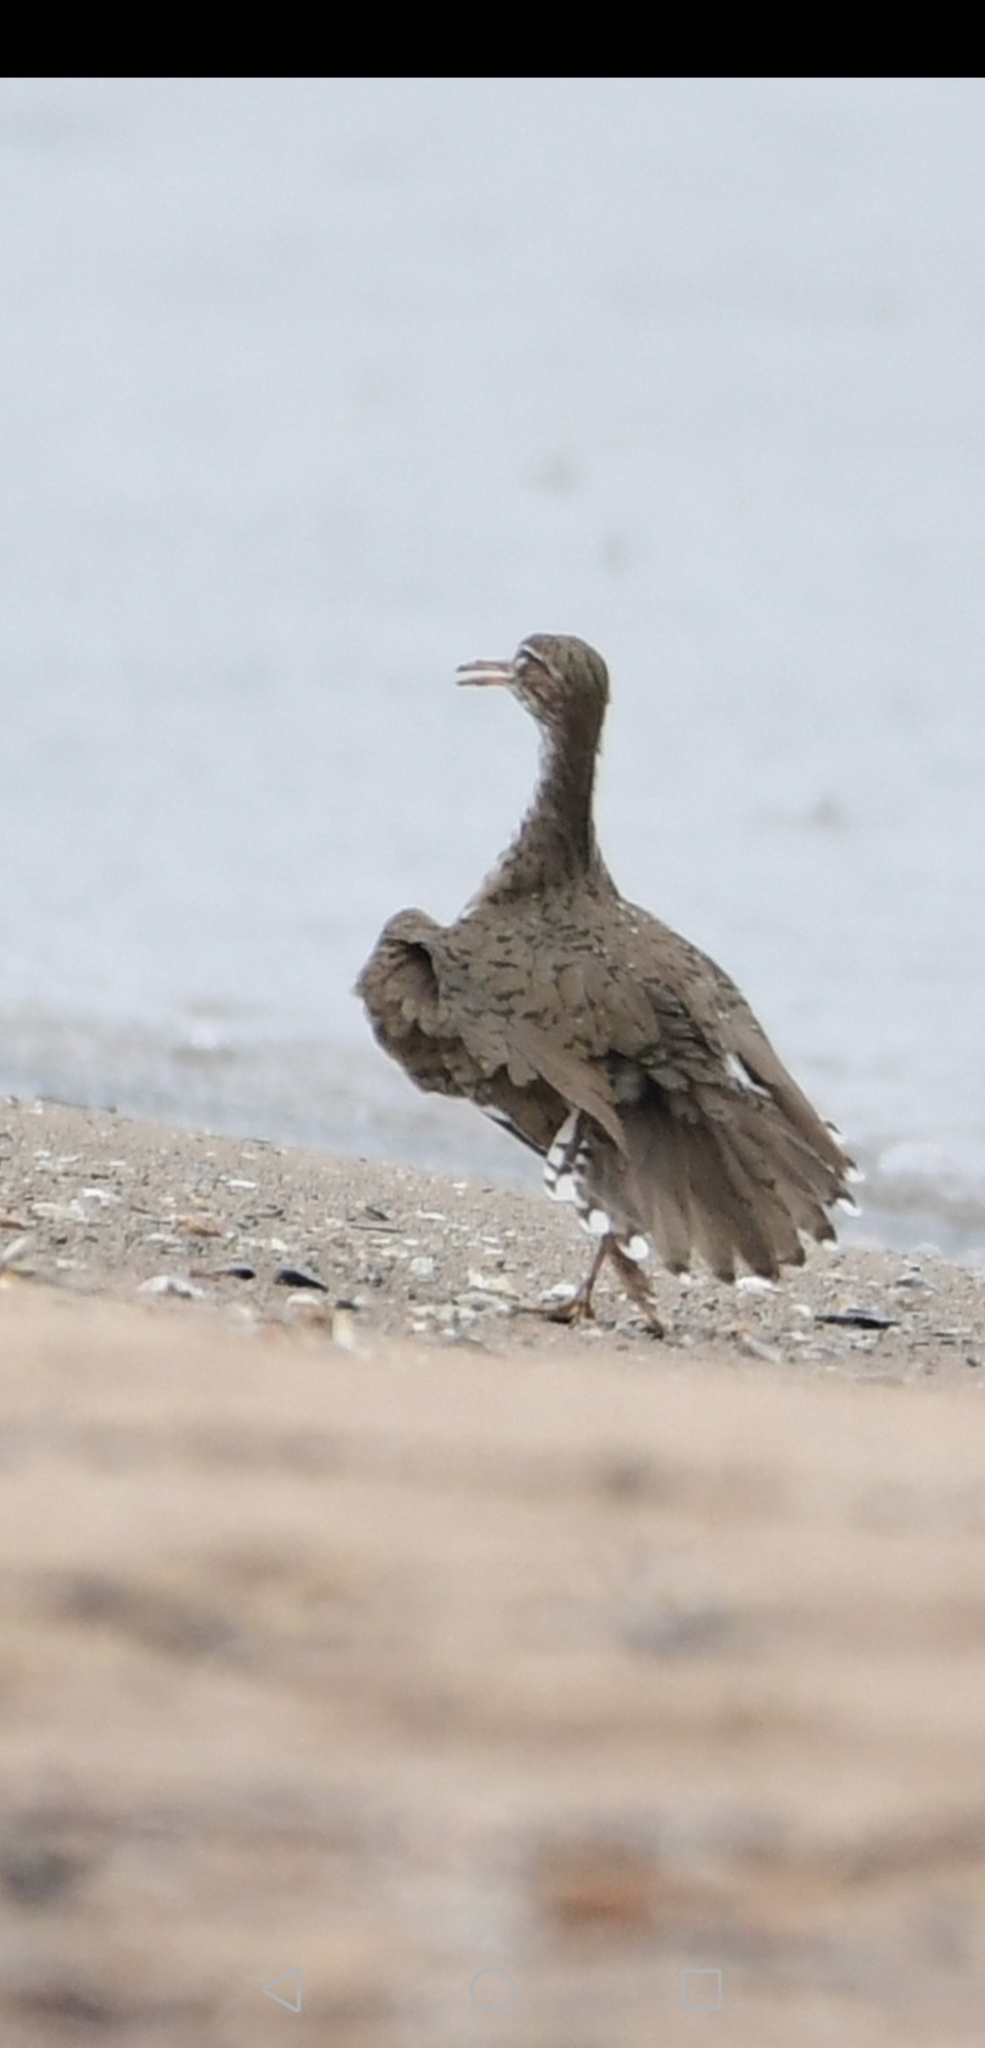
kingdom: Animalia
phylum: Chordata
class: Aves
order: Charadriiformes
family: Scolopacidae
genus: Actitis
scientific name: Actitis macularius
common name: Spotted sandpiper
